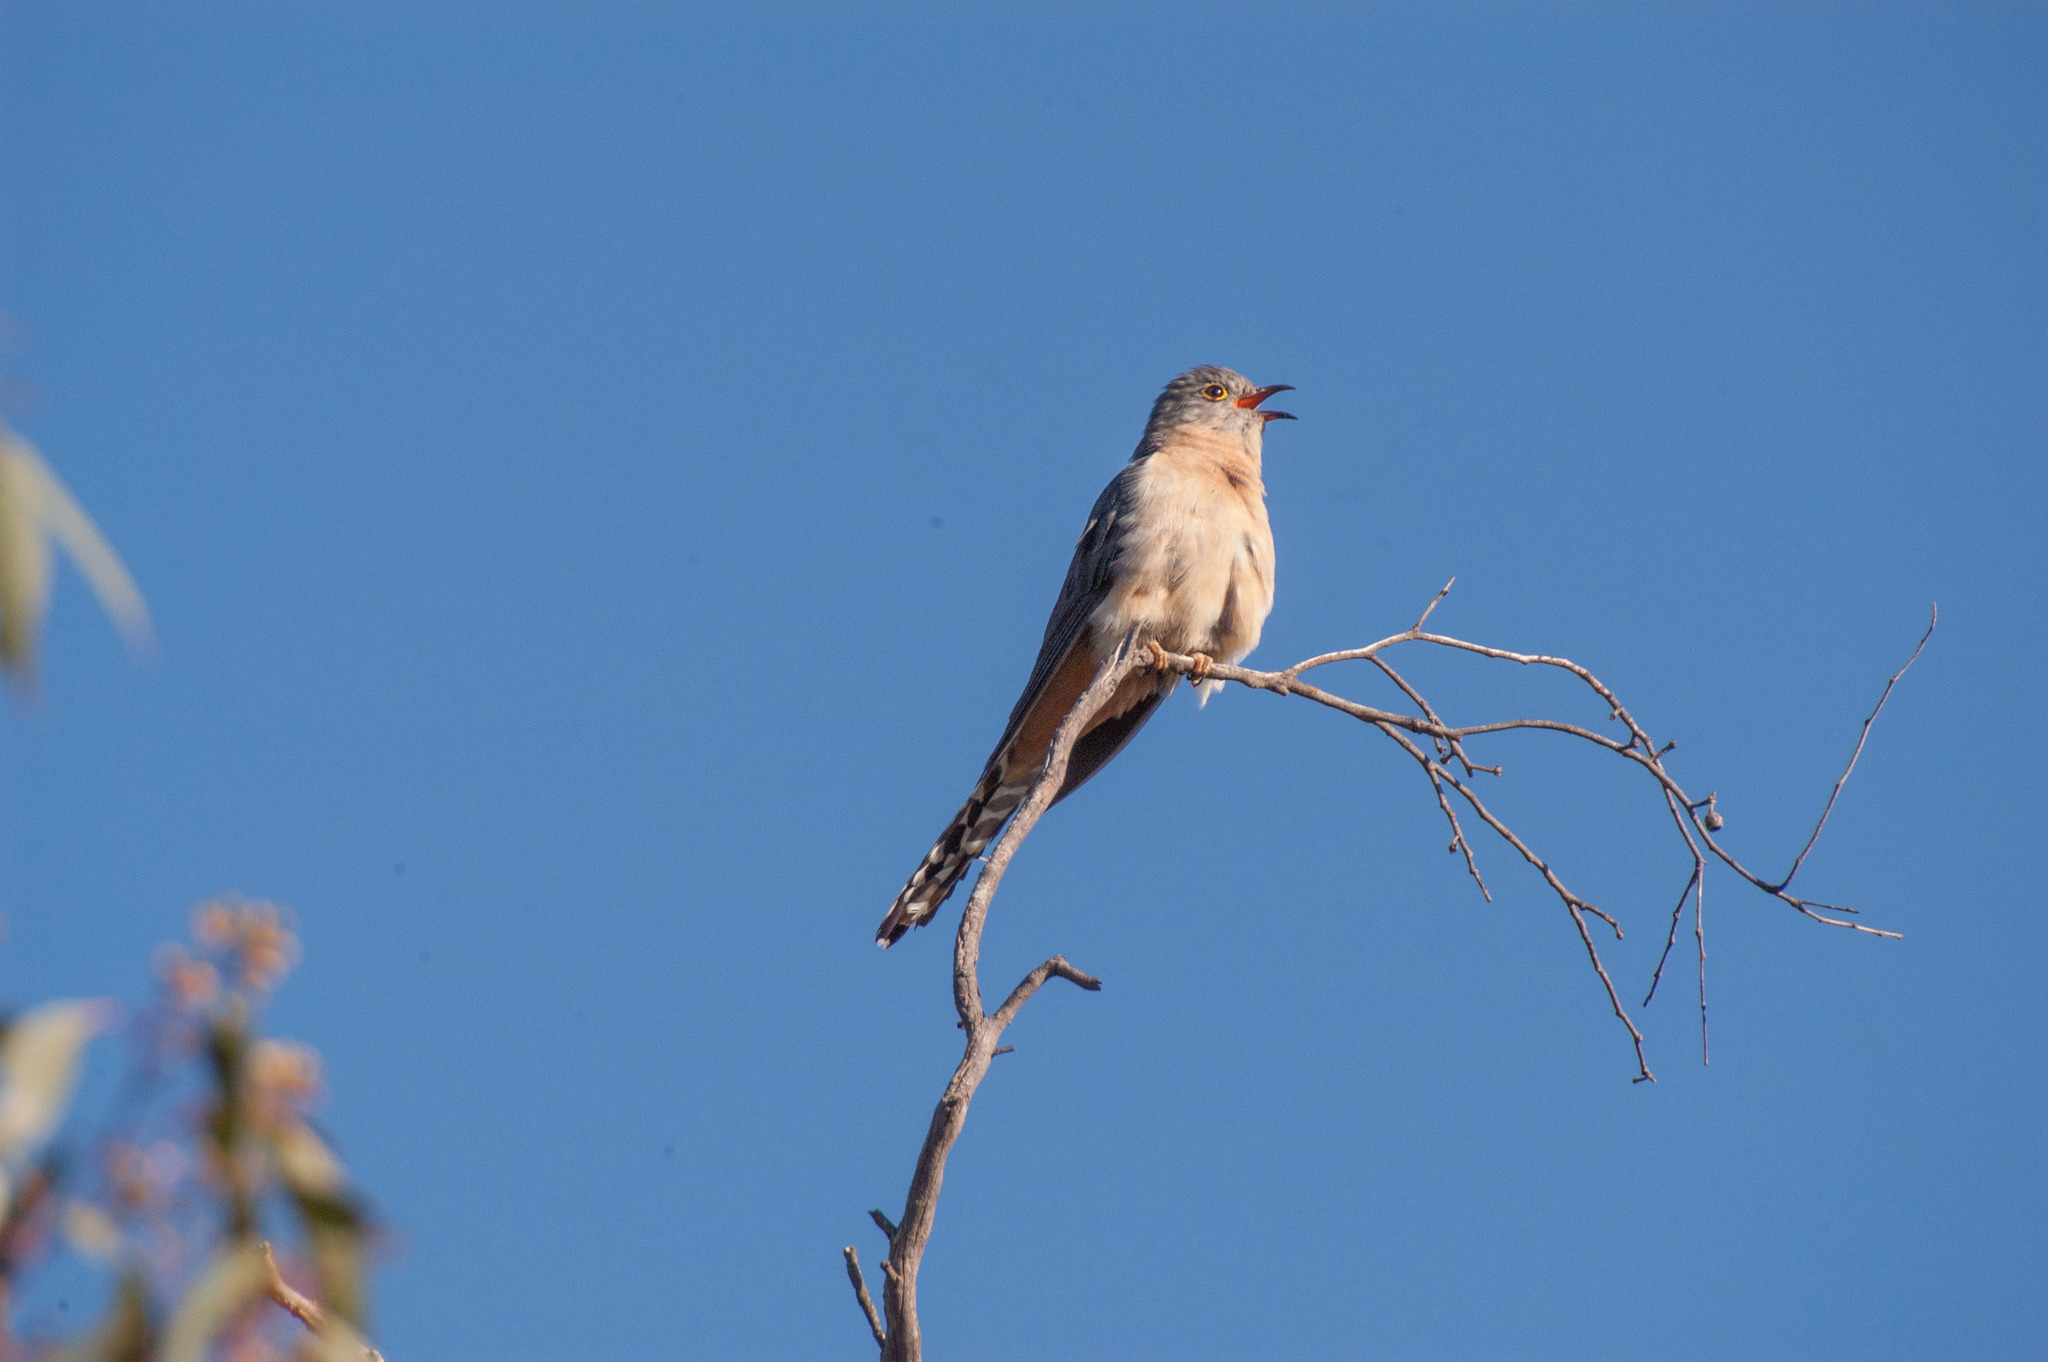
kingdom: Animalia
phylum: Chordata
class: Aves
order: Cuculiformes
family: Cuculidae
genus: Cacomantis
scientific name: Cacomantis flabelliformis
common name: Fan-tailed cuckoo
